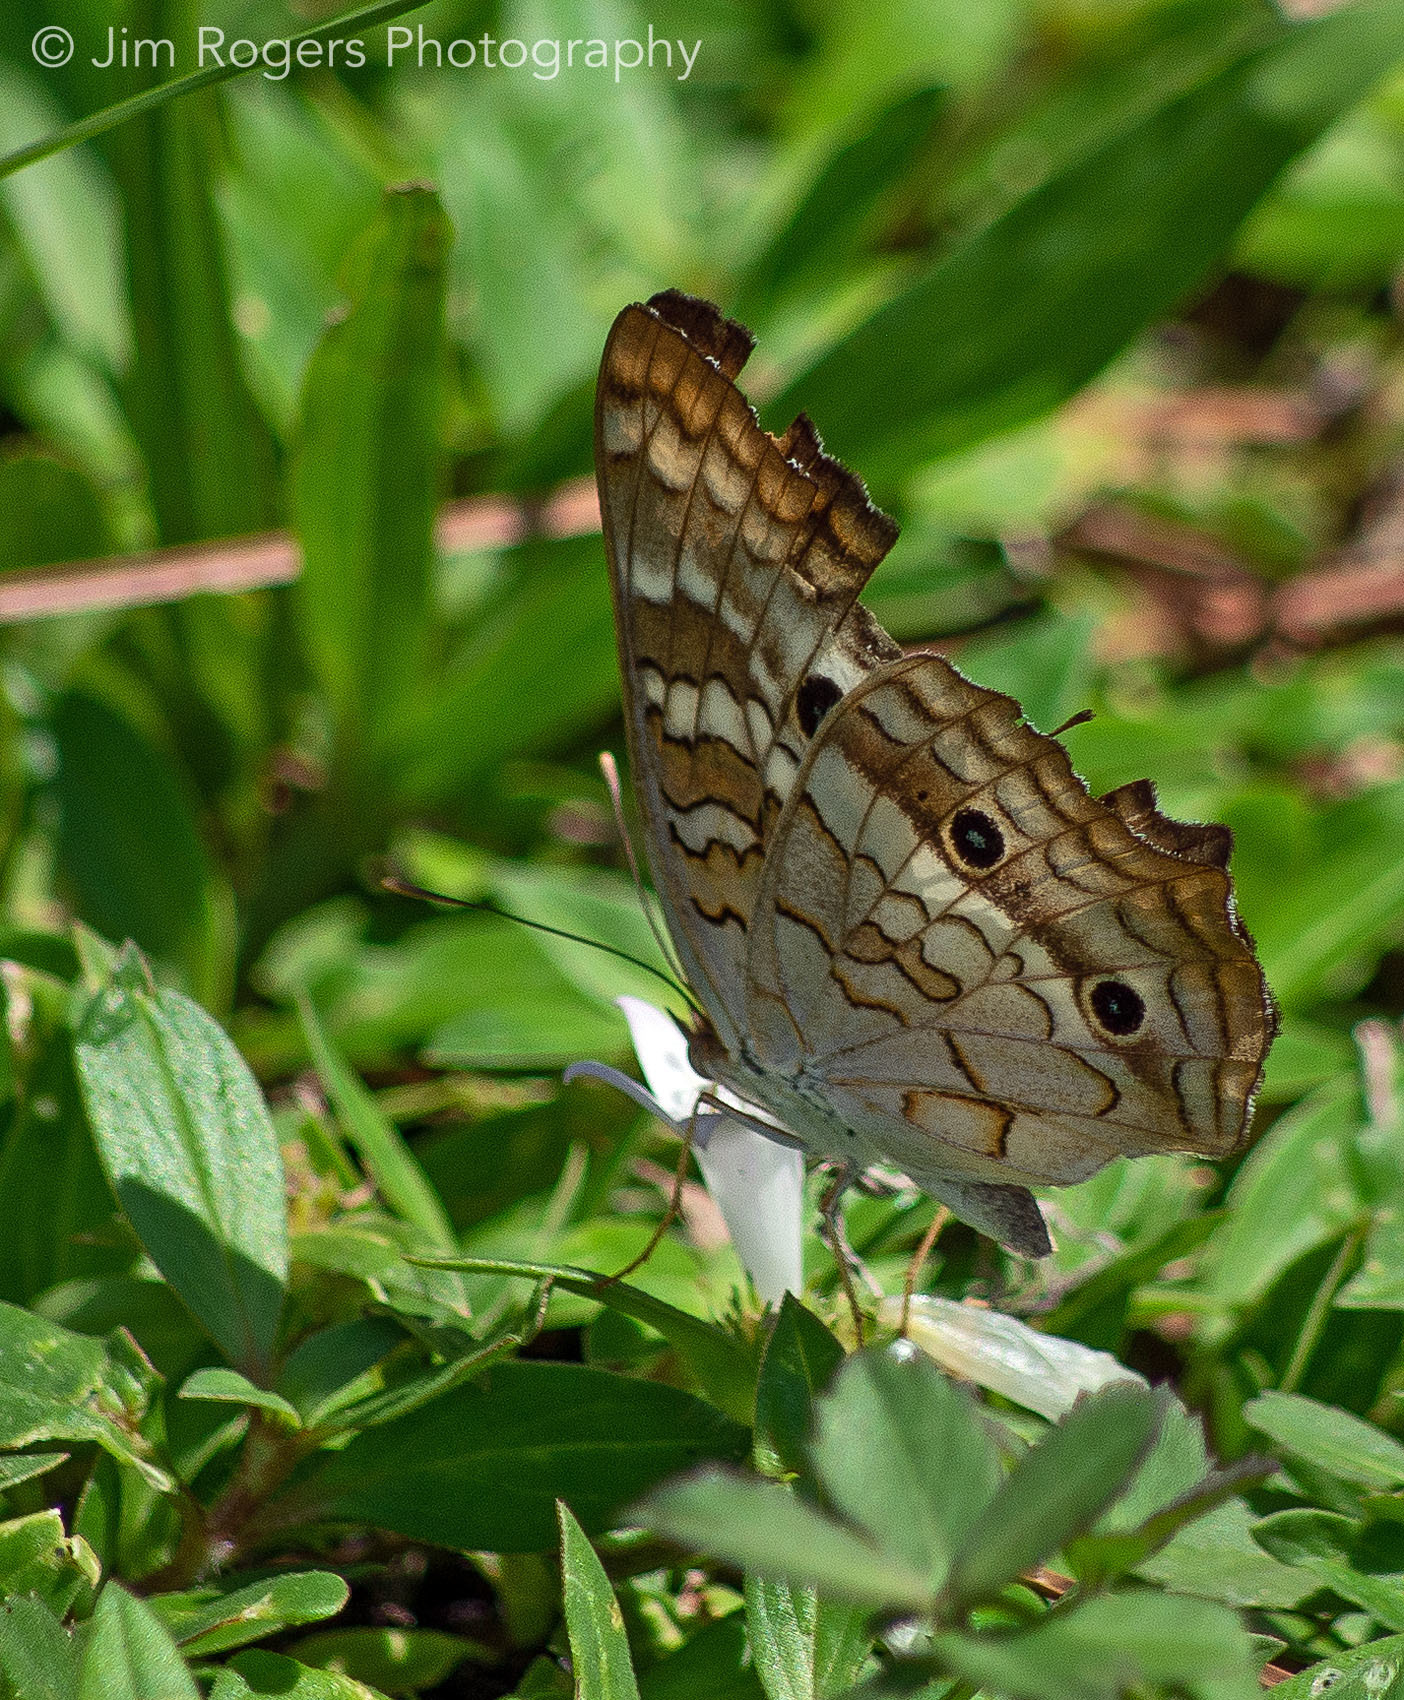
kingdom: Animalia
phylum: Arthropoda
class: Insecta
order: Lepidoptera
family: Nymphalidae
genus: Anartia
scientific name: Anartia jatrophae
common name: White peacock
